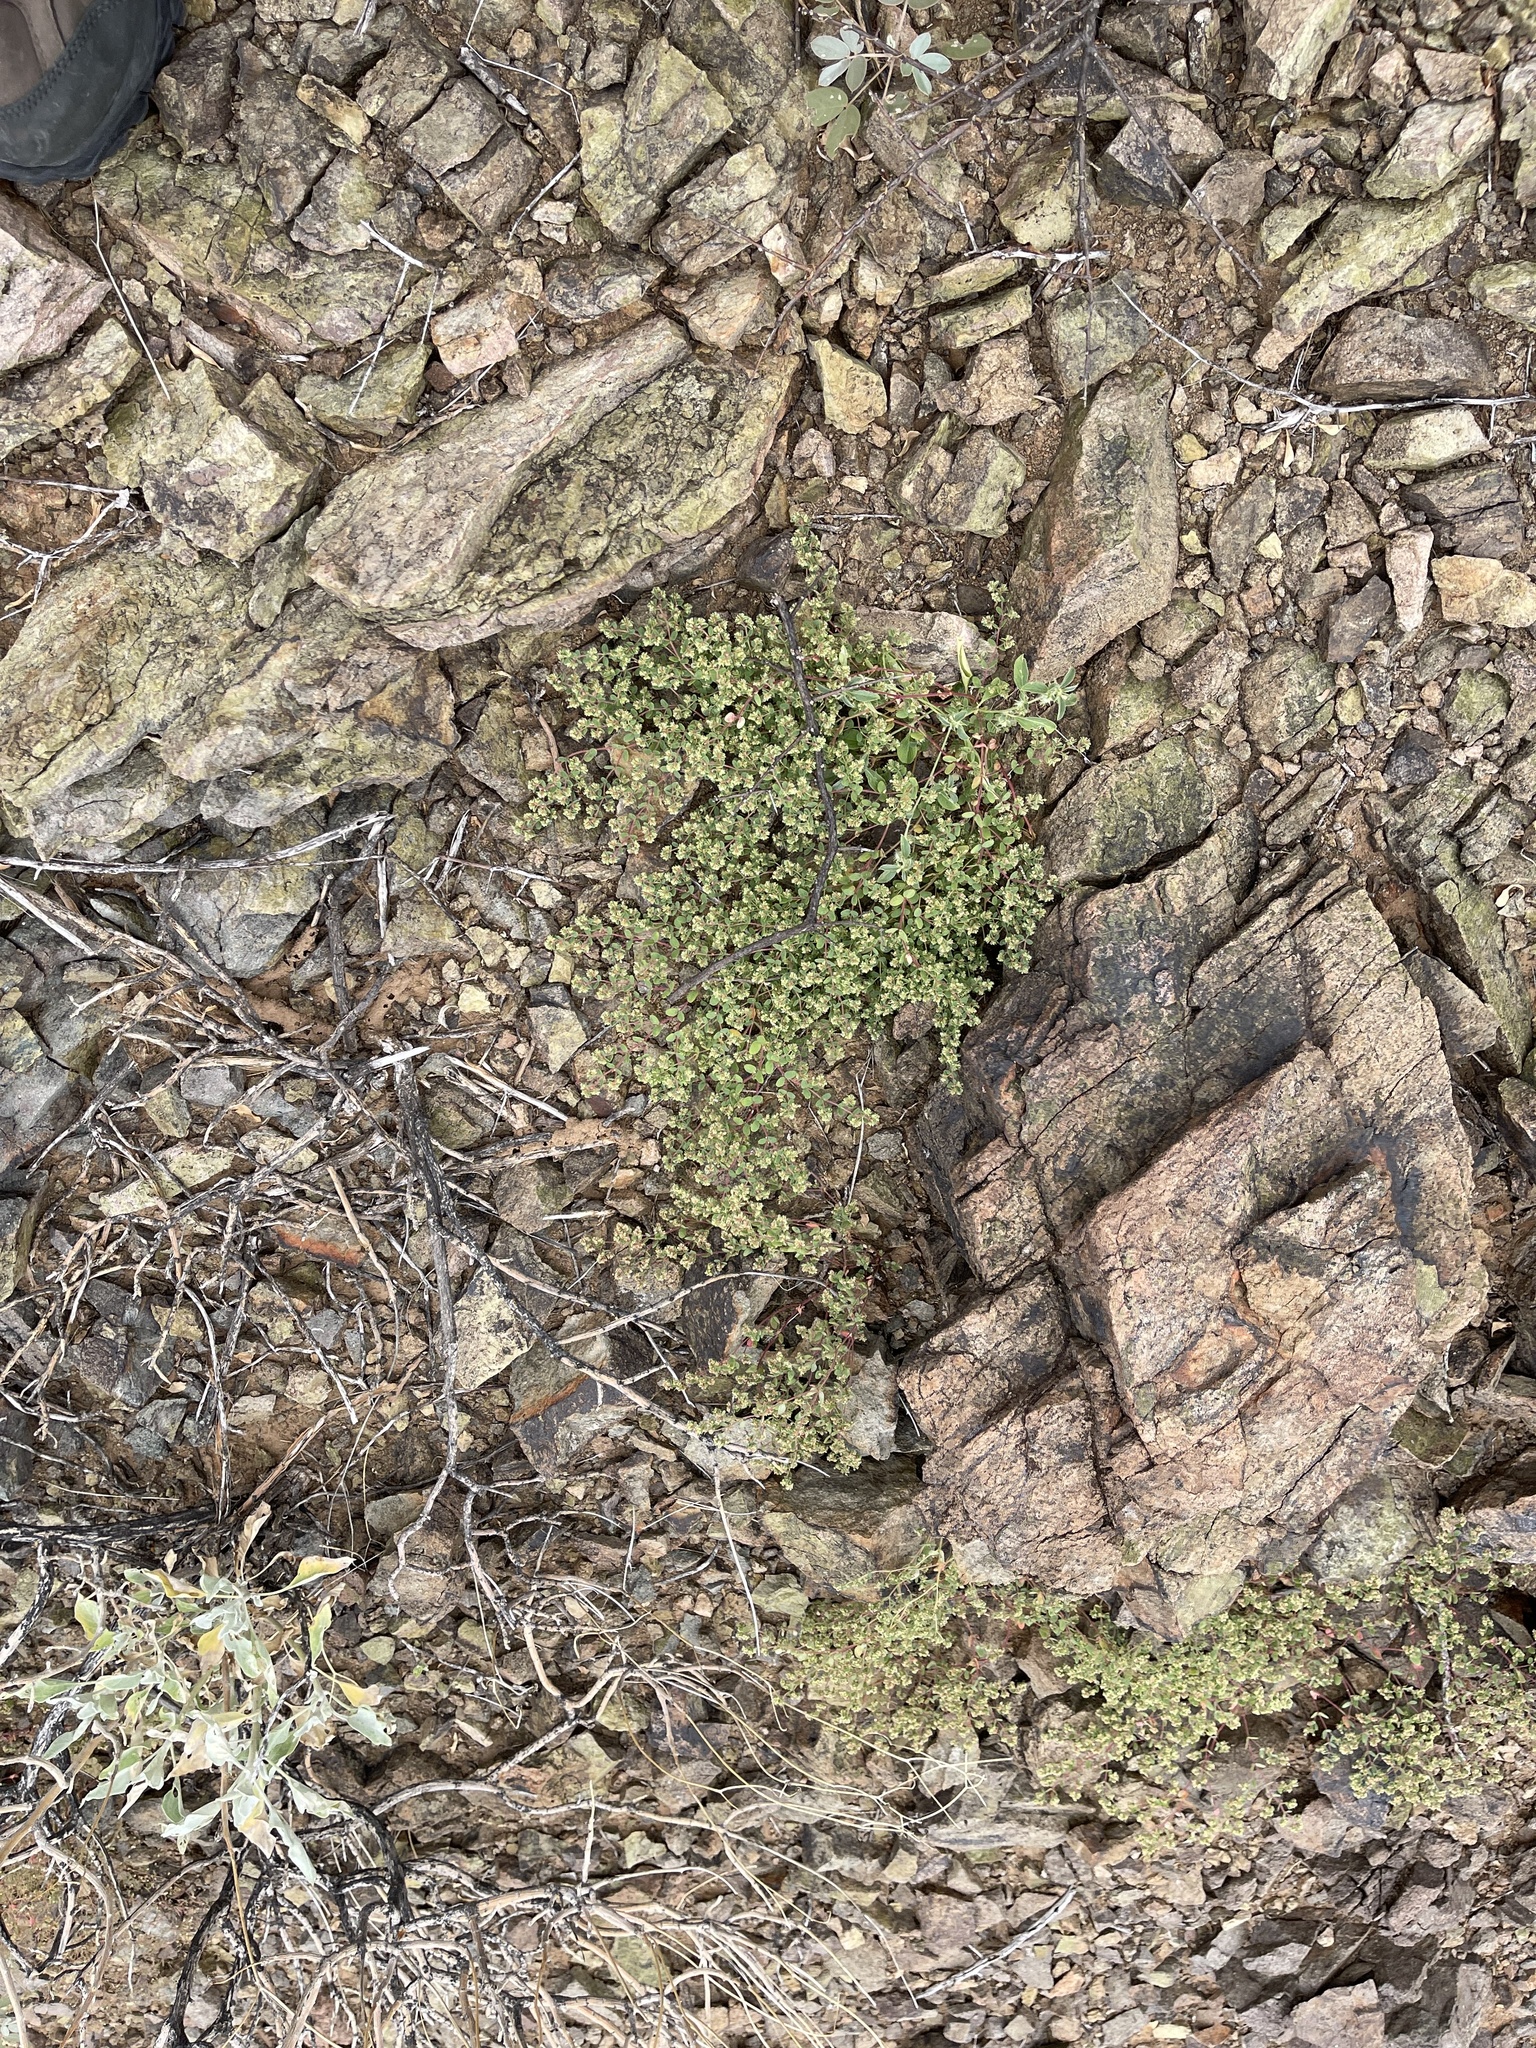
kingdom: Plantae
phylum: Tracheophyta
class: Magnoliopsida
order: Malpighiales
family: Euphorbiaceae
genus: Euphorbia
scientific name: Euphorbia setiloba
